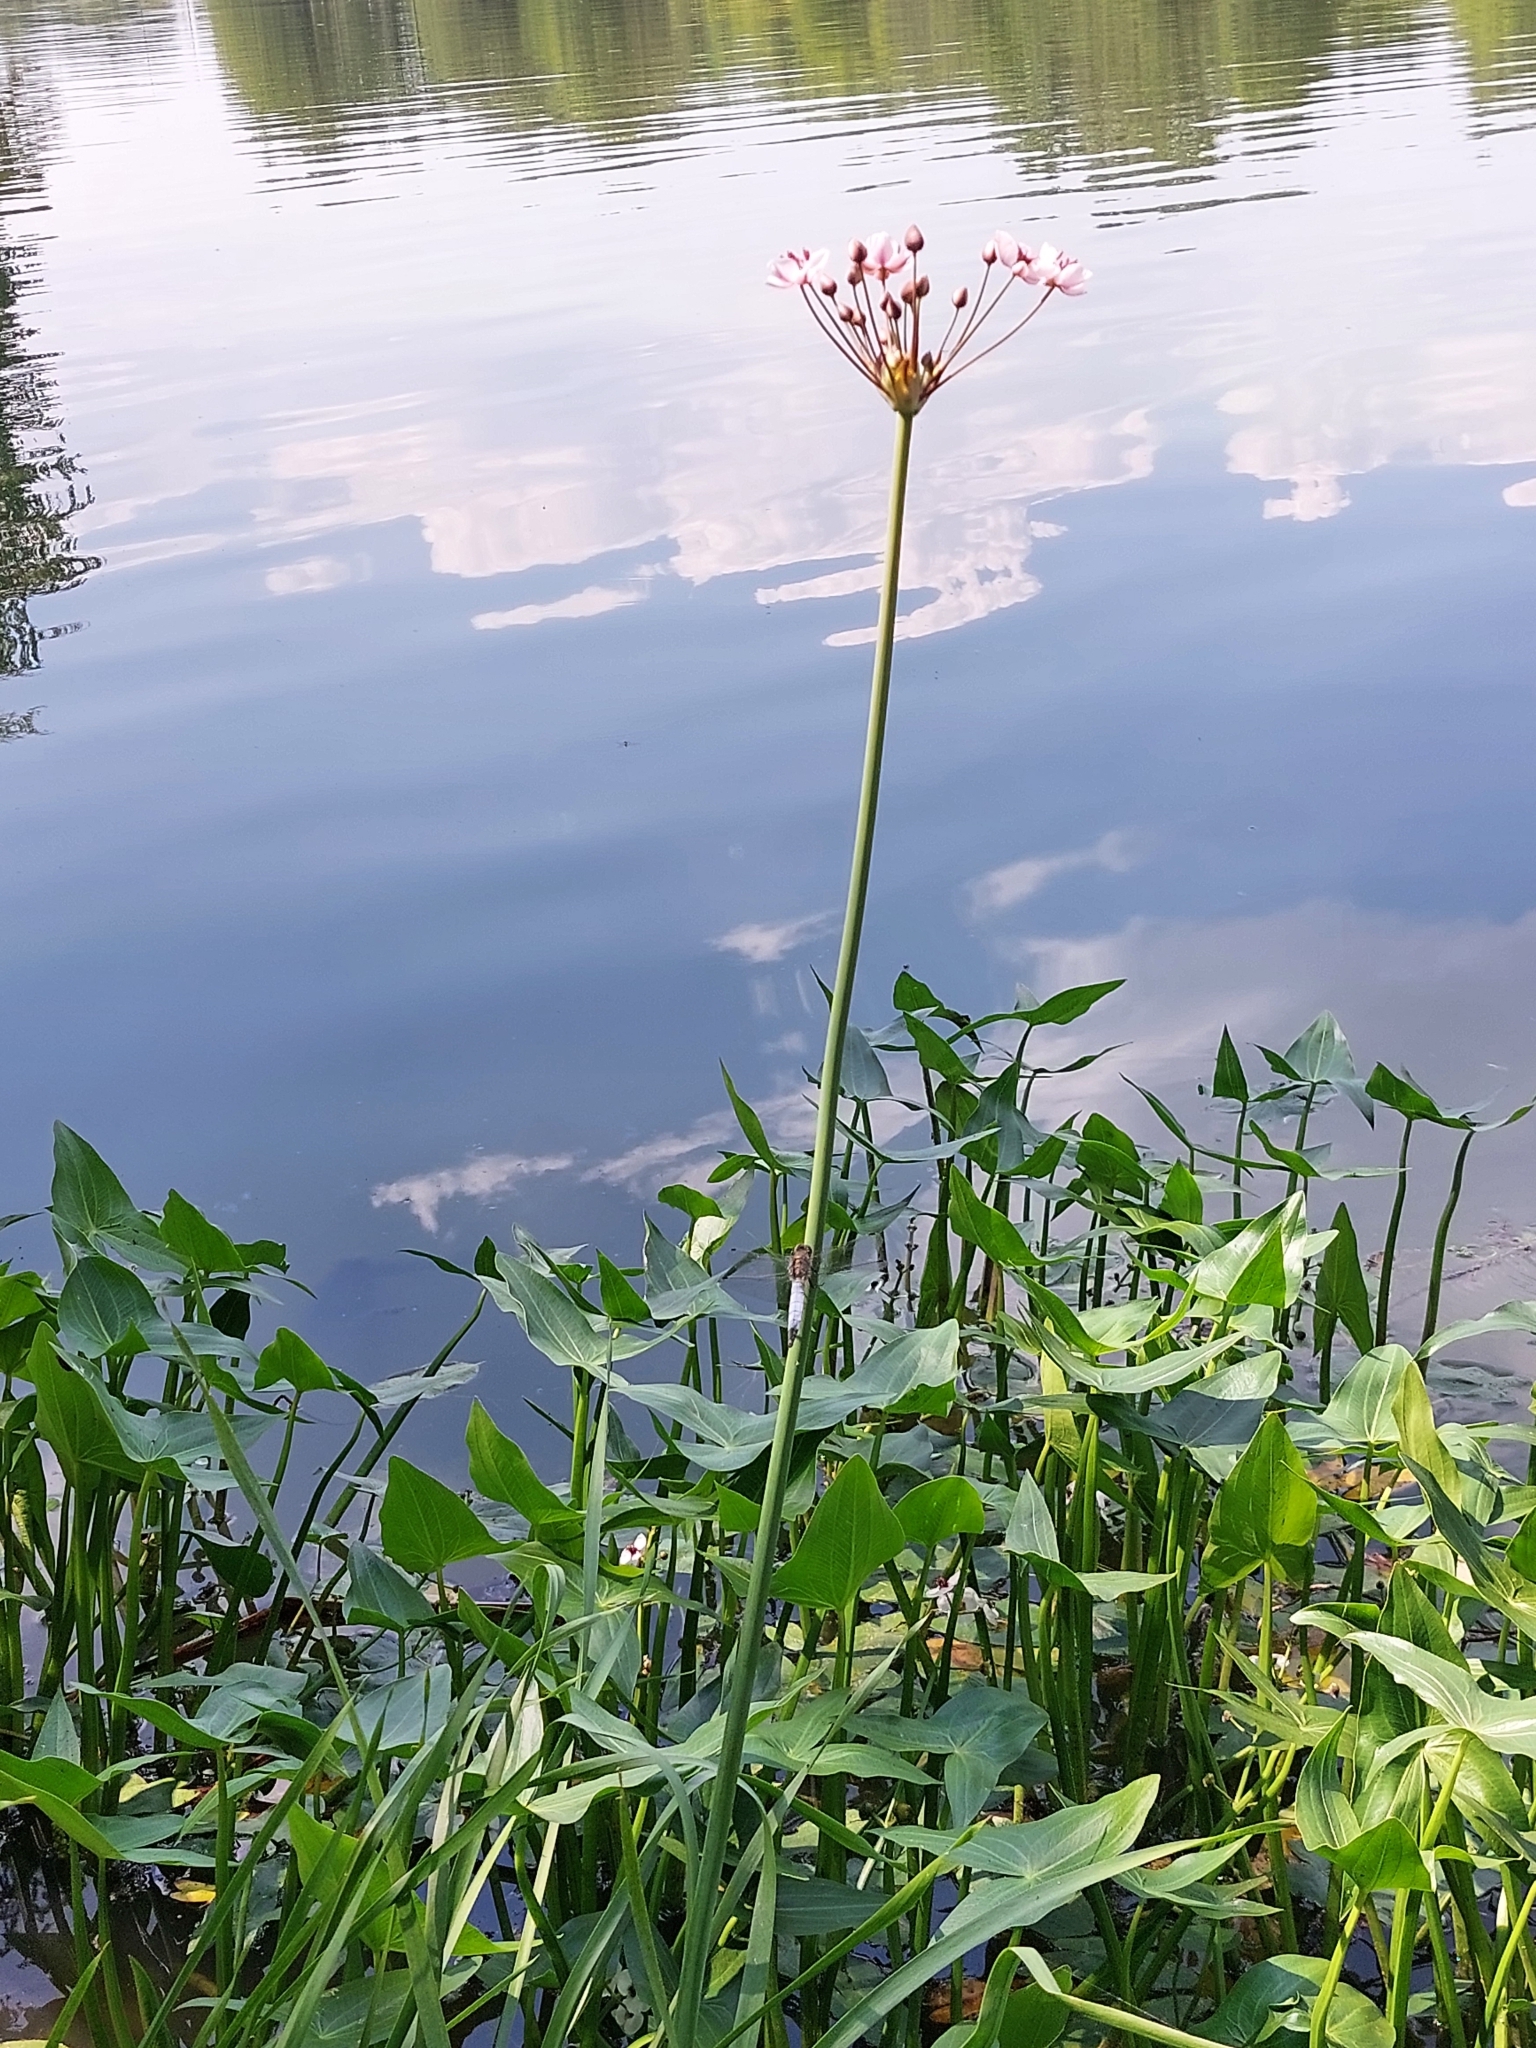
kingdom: Plantae
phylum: Tracheophyta
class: Liliopsida
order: Alismatales
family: Butomaceae
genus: Butomus
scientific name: Butomus umbellatus
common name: Flowering-rush
